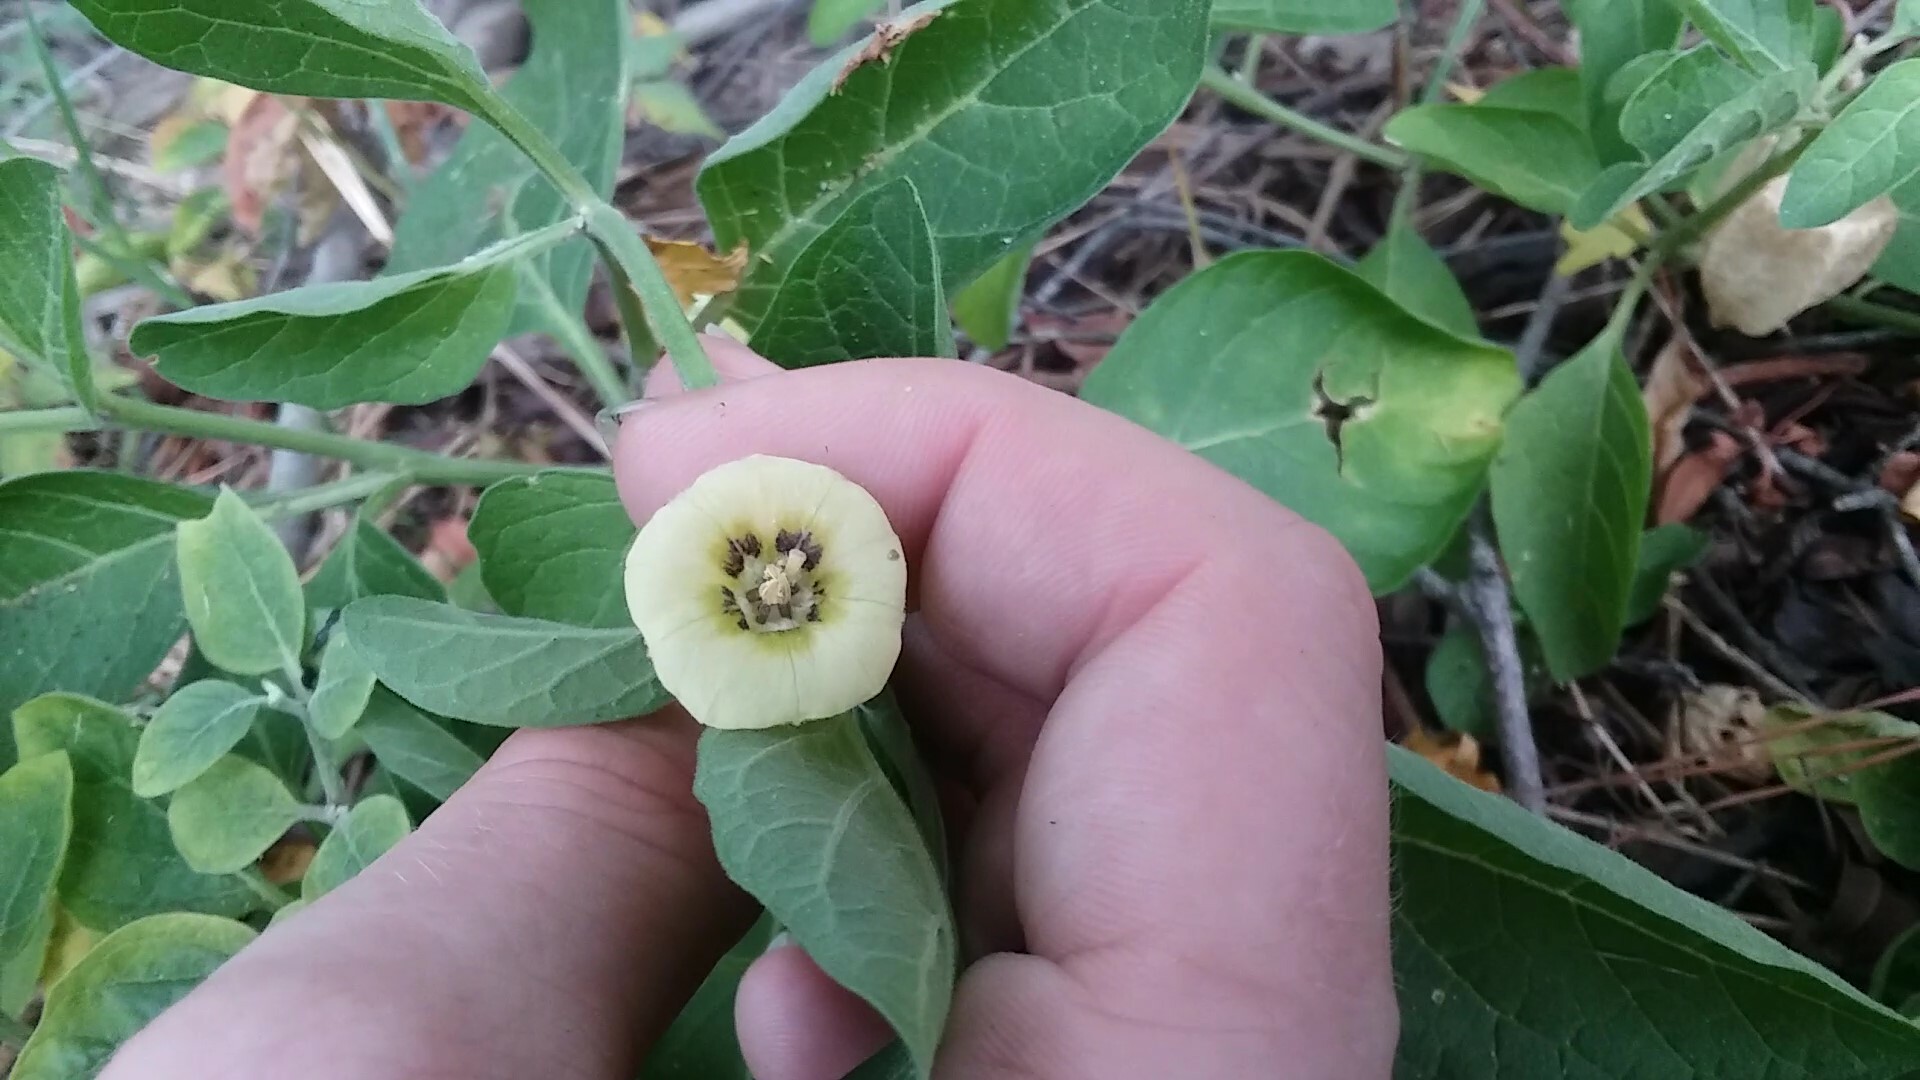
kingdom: Plantae
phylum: Tracheophyta
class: Magnoliopsida
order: Solanales
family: Solanaceae
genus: Physalis
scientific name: Physalis walteri
